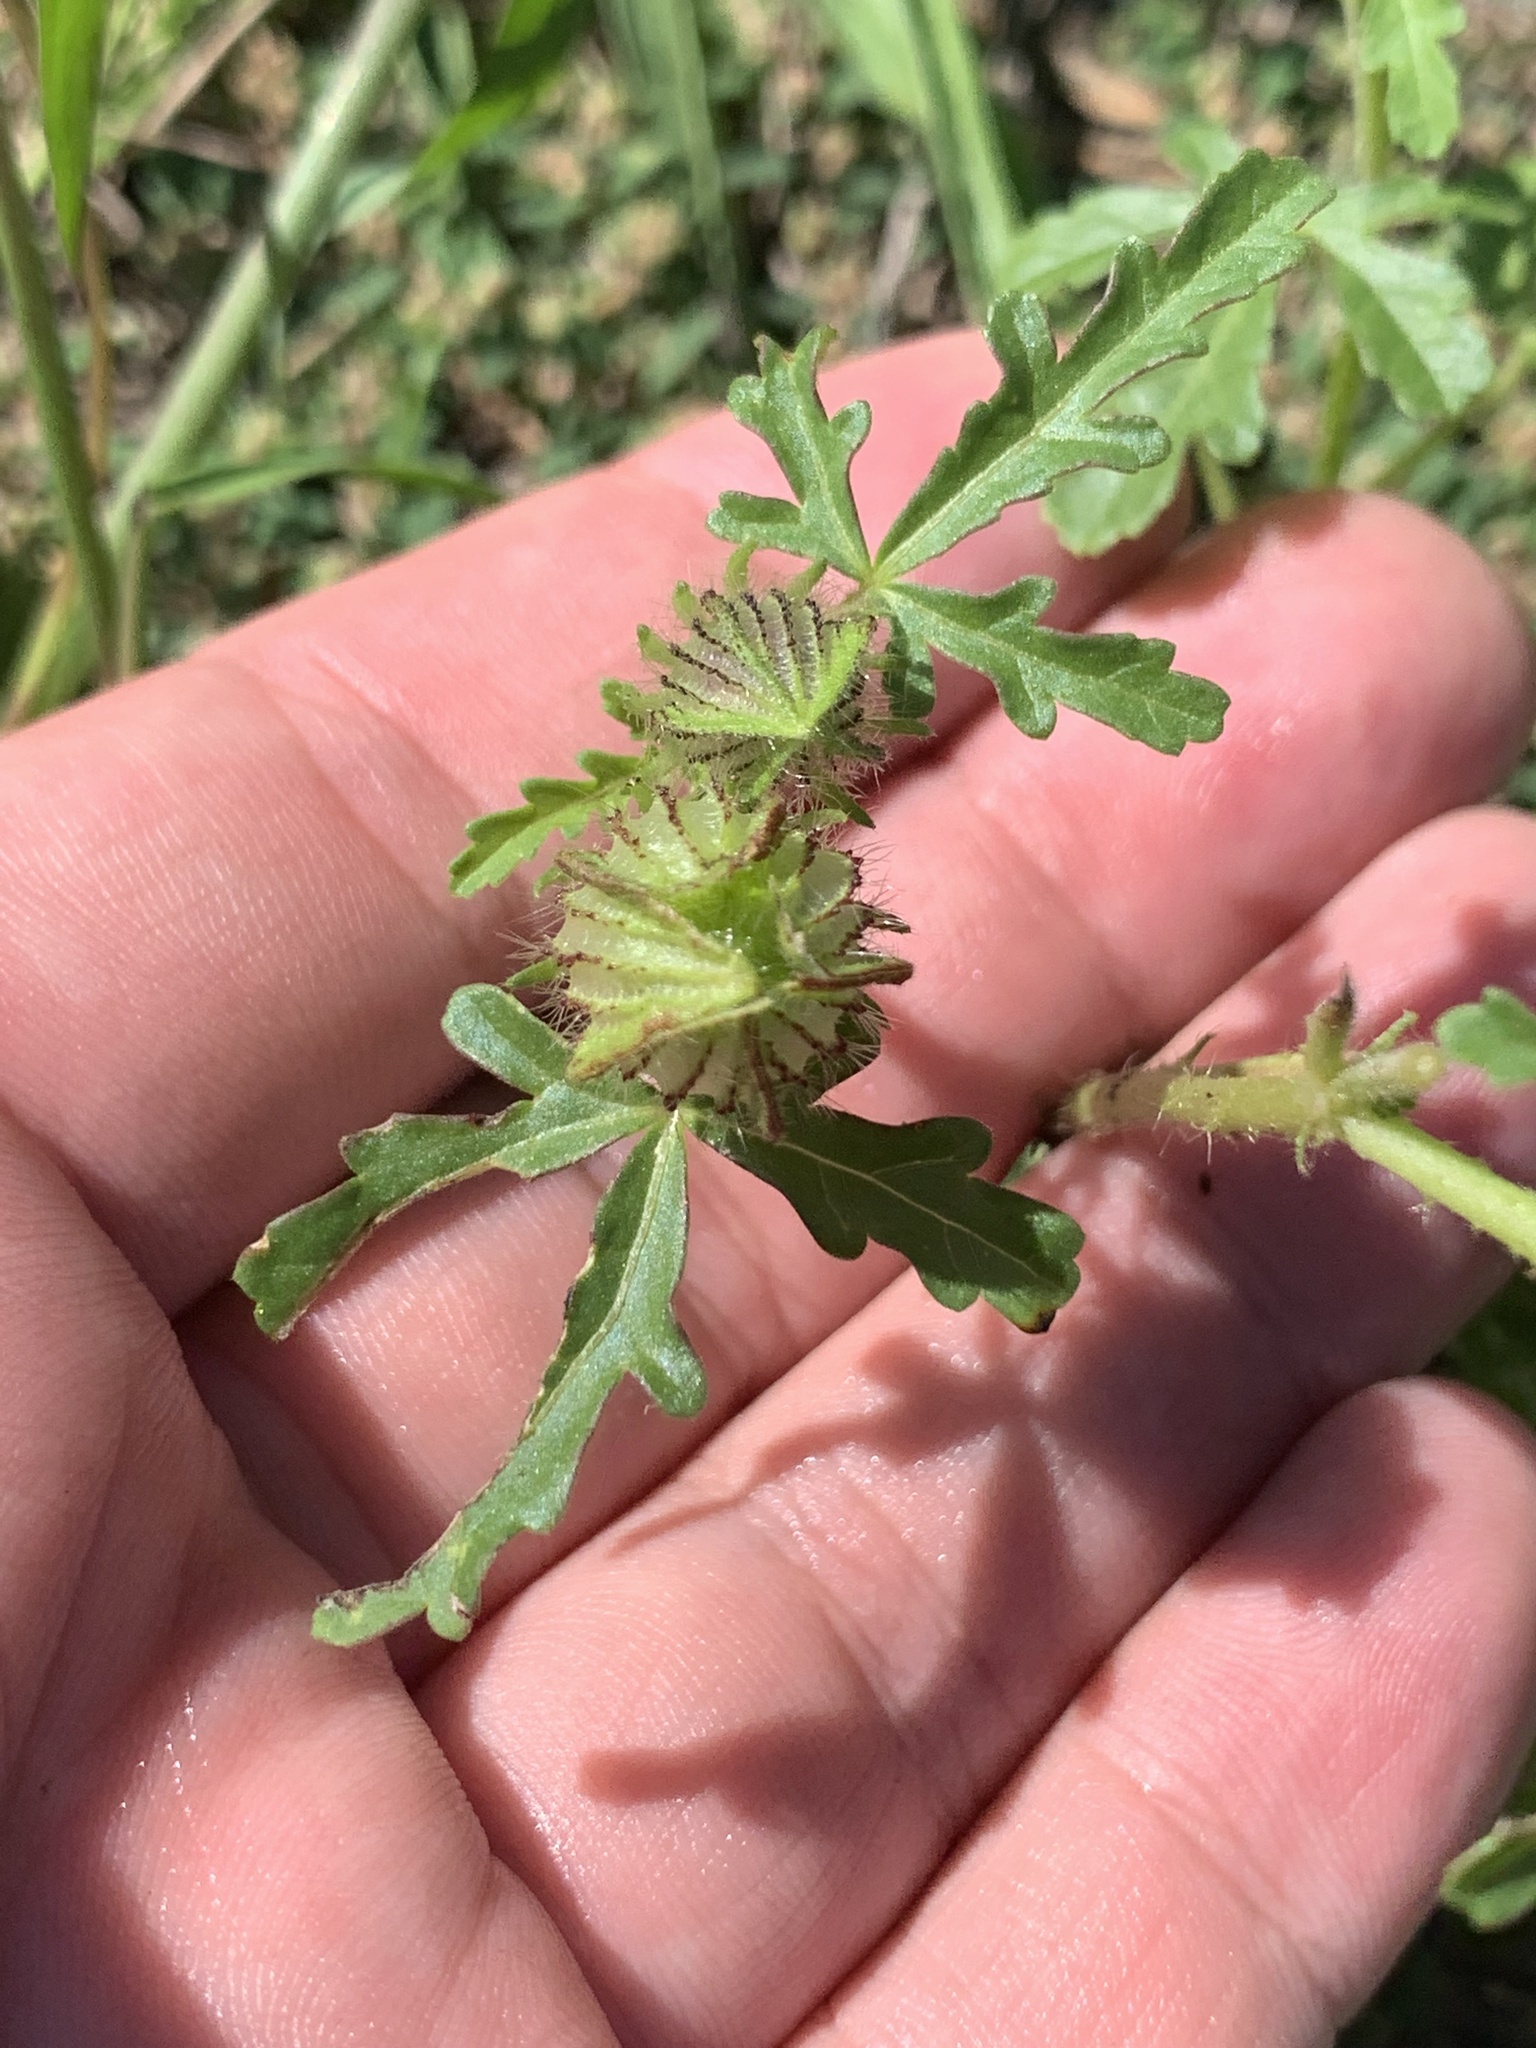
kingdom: Plantae
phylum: Tracheophyta
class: Magnoliopsida
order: Malvales
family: Malvaceae
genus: Hibiscus
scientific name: Hibiscus trionum
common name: Bladder ketmia
